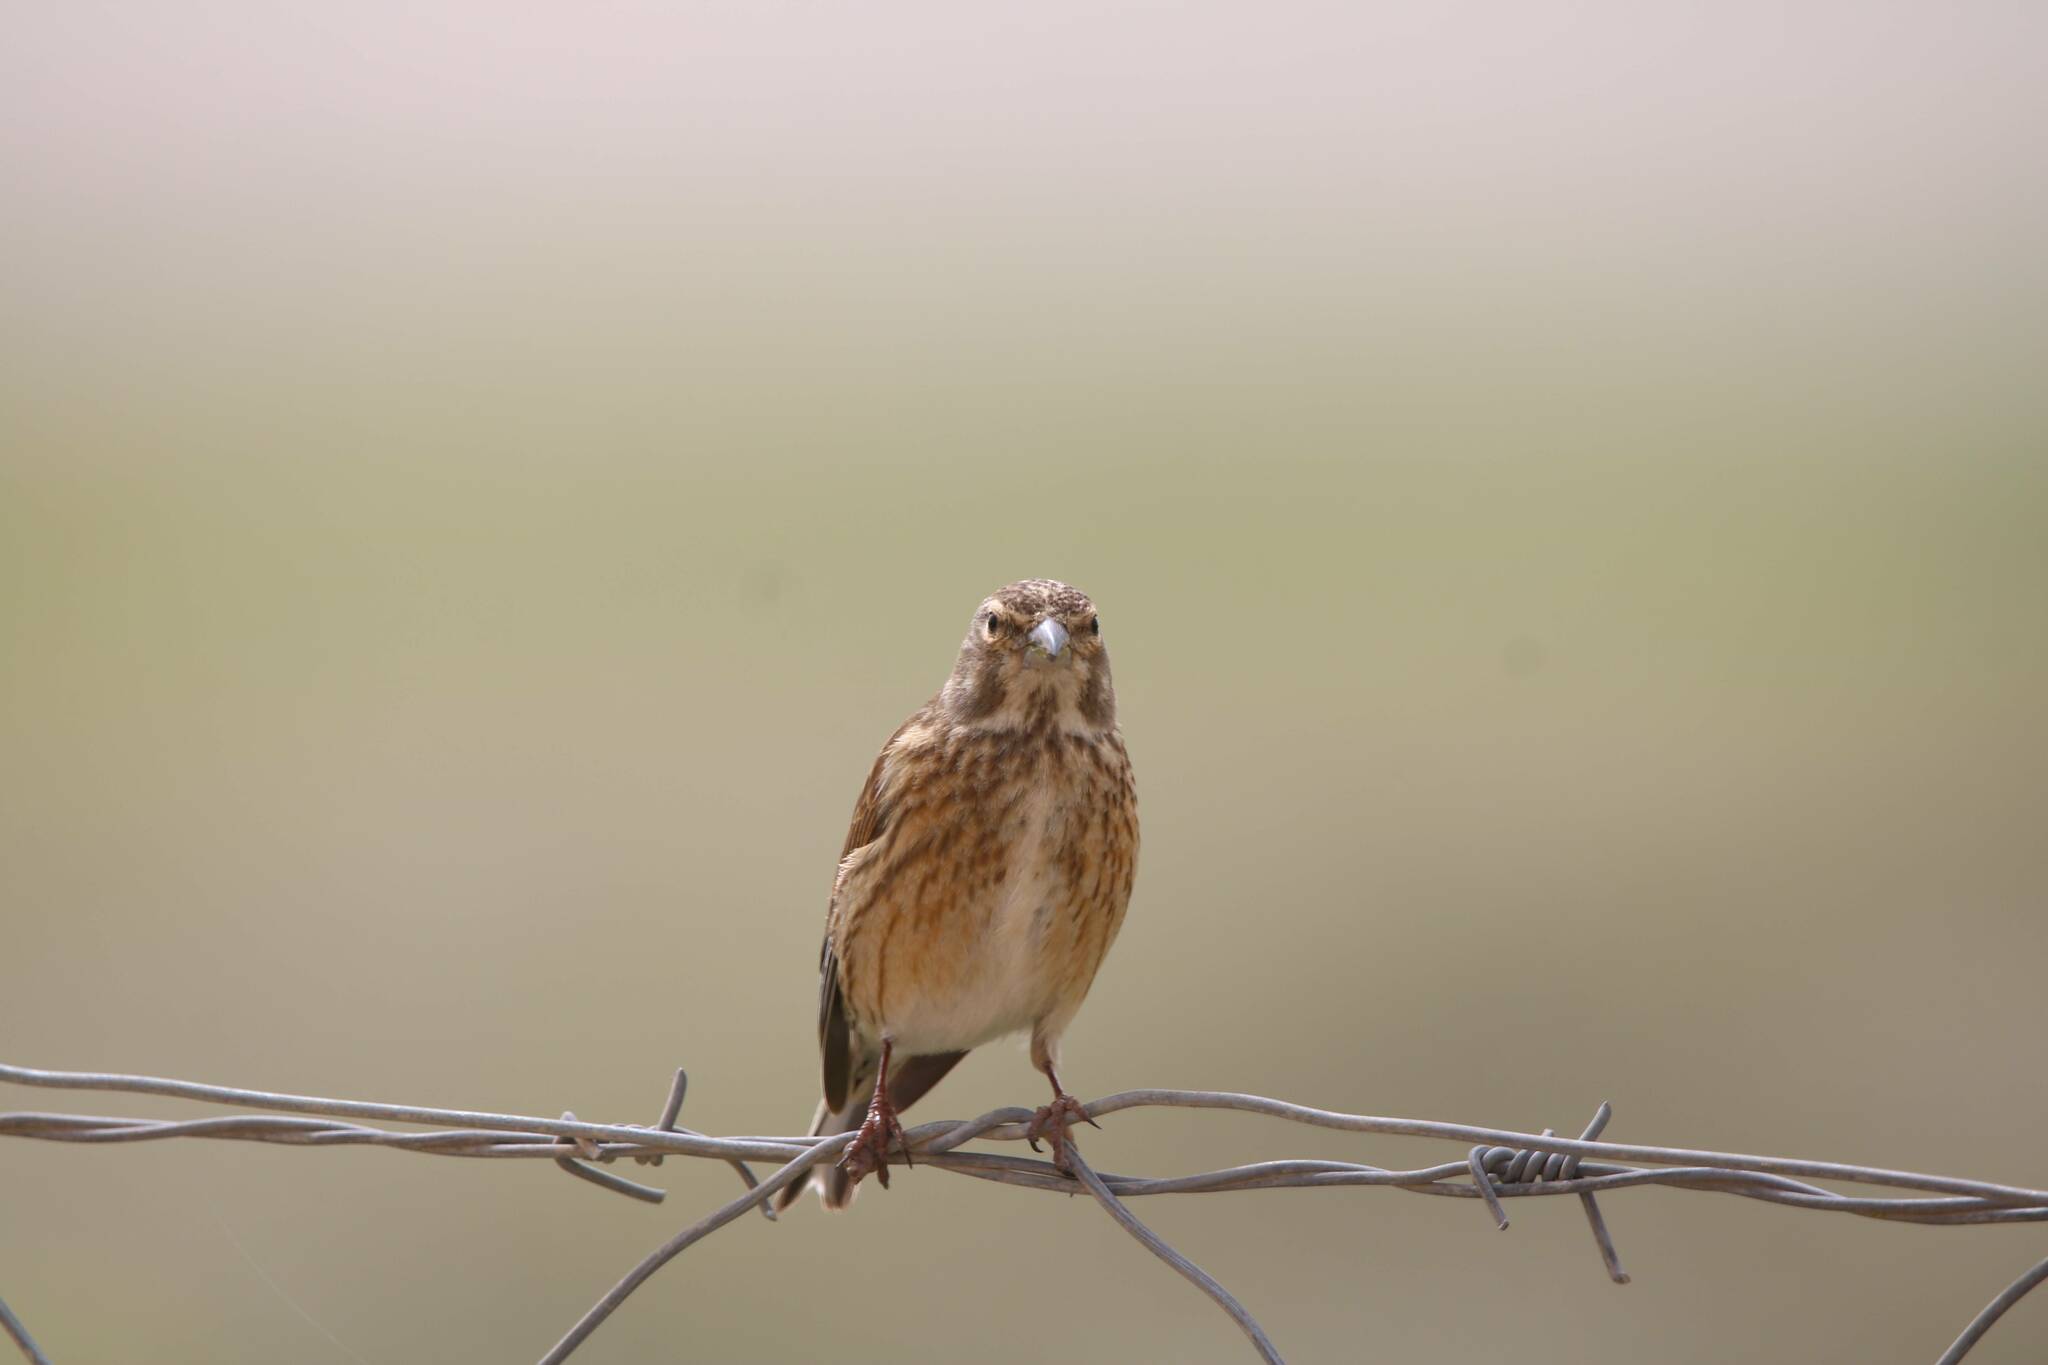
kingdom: Animalia
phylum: Chordata
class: Aves
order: Passeriformes
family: Fringillidae
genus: Linaria
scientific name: Linaria cannabina
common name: Common linnet
